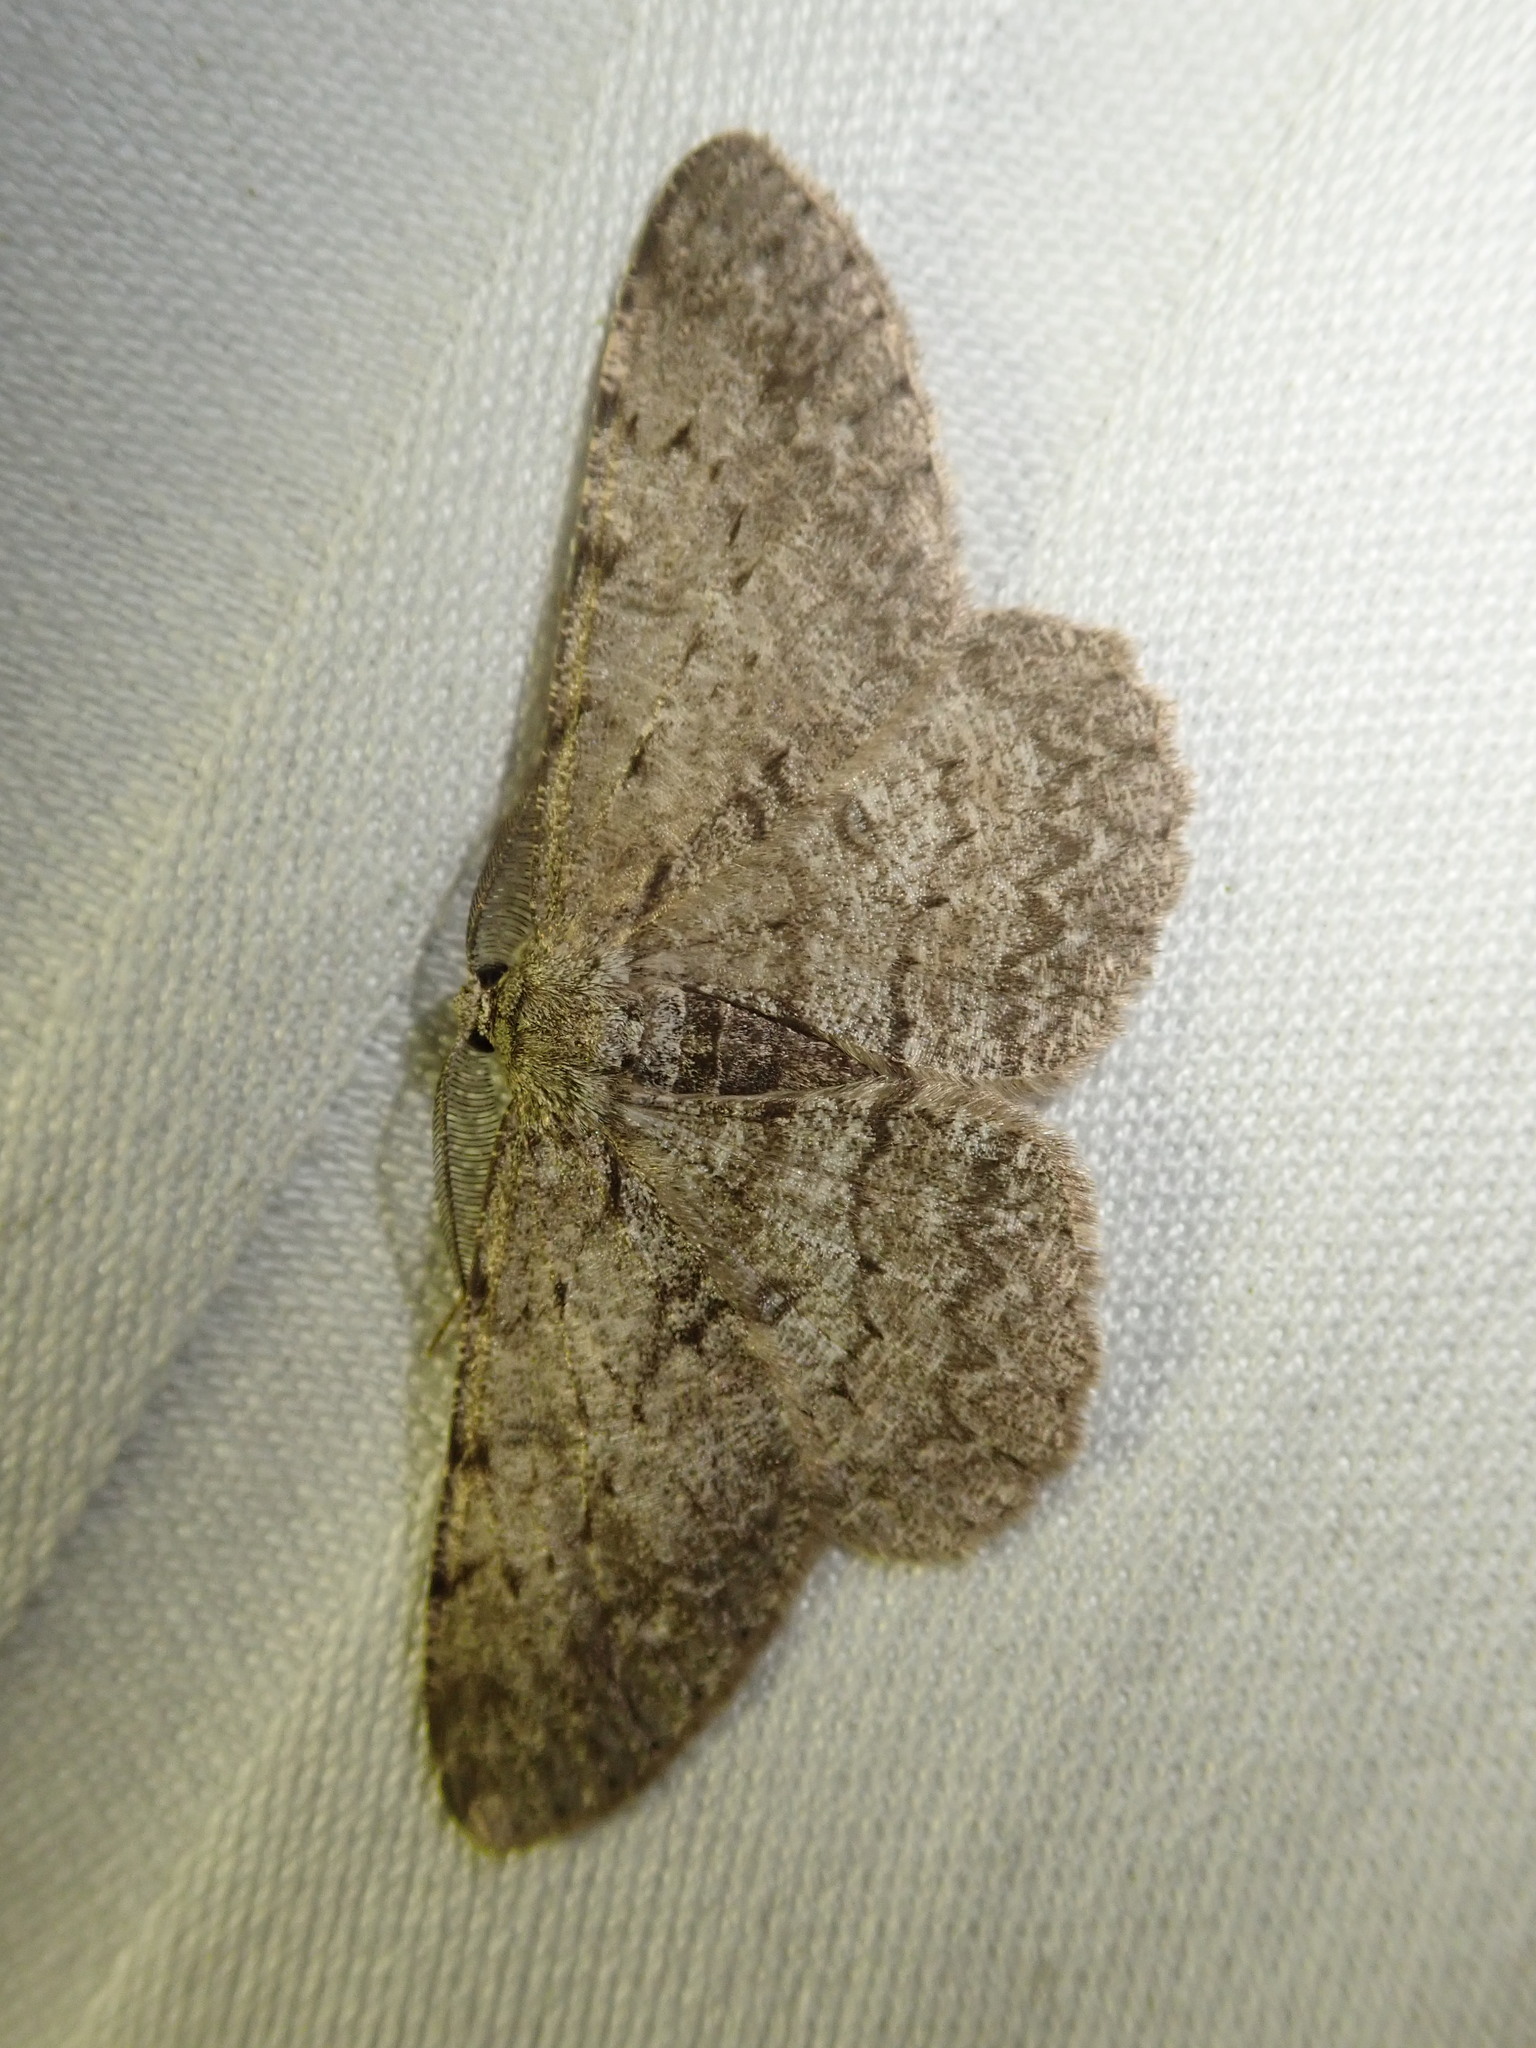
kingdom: Animalia
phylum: Arthropoda
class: Insecta
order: Lepidoptera
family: Geometridae
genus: Hypomecis
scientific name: Hypomecis punctinalis
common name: Pale oak beauty
